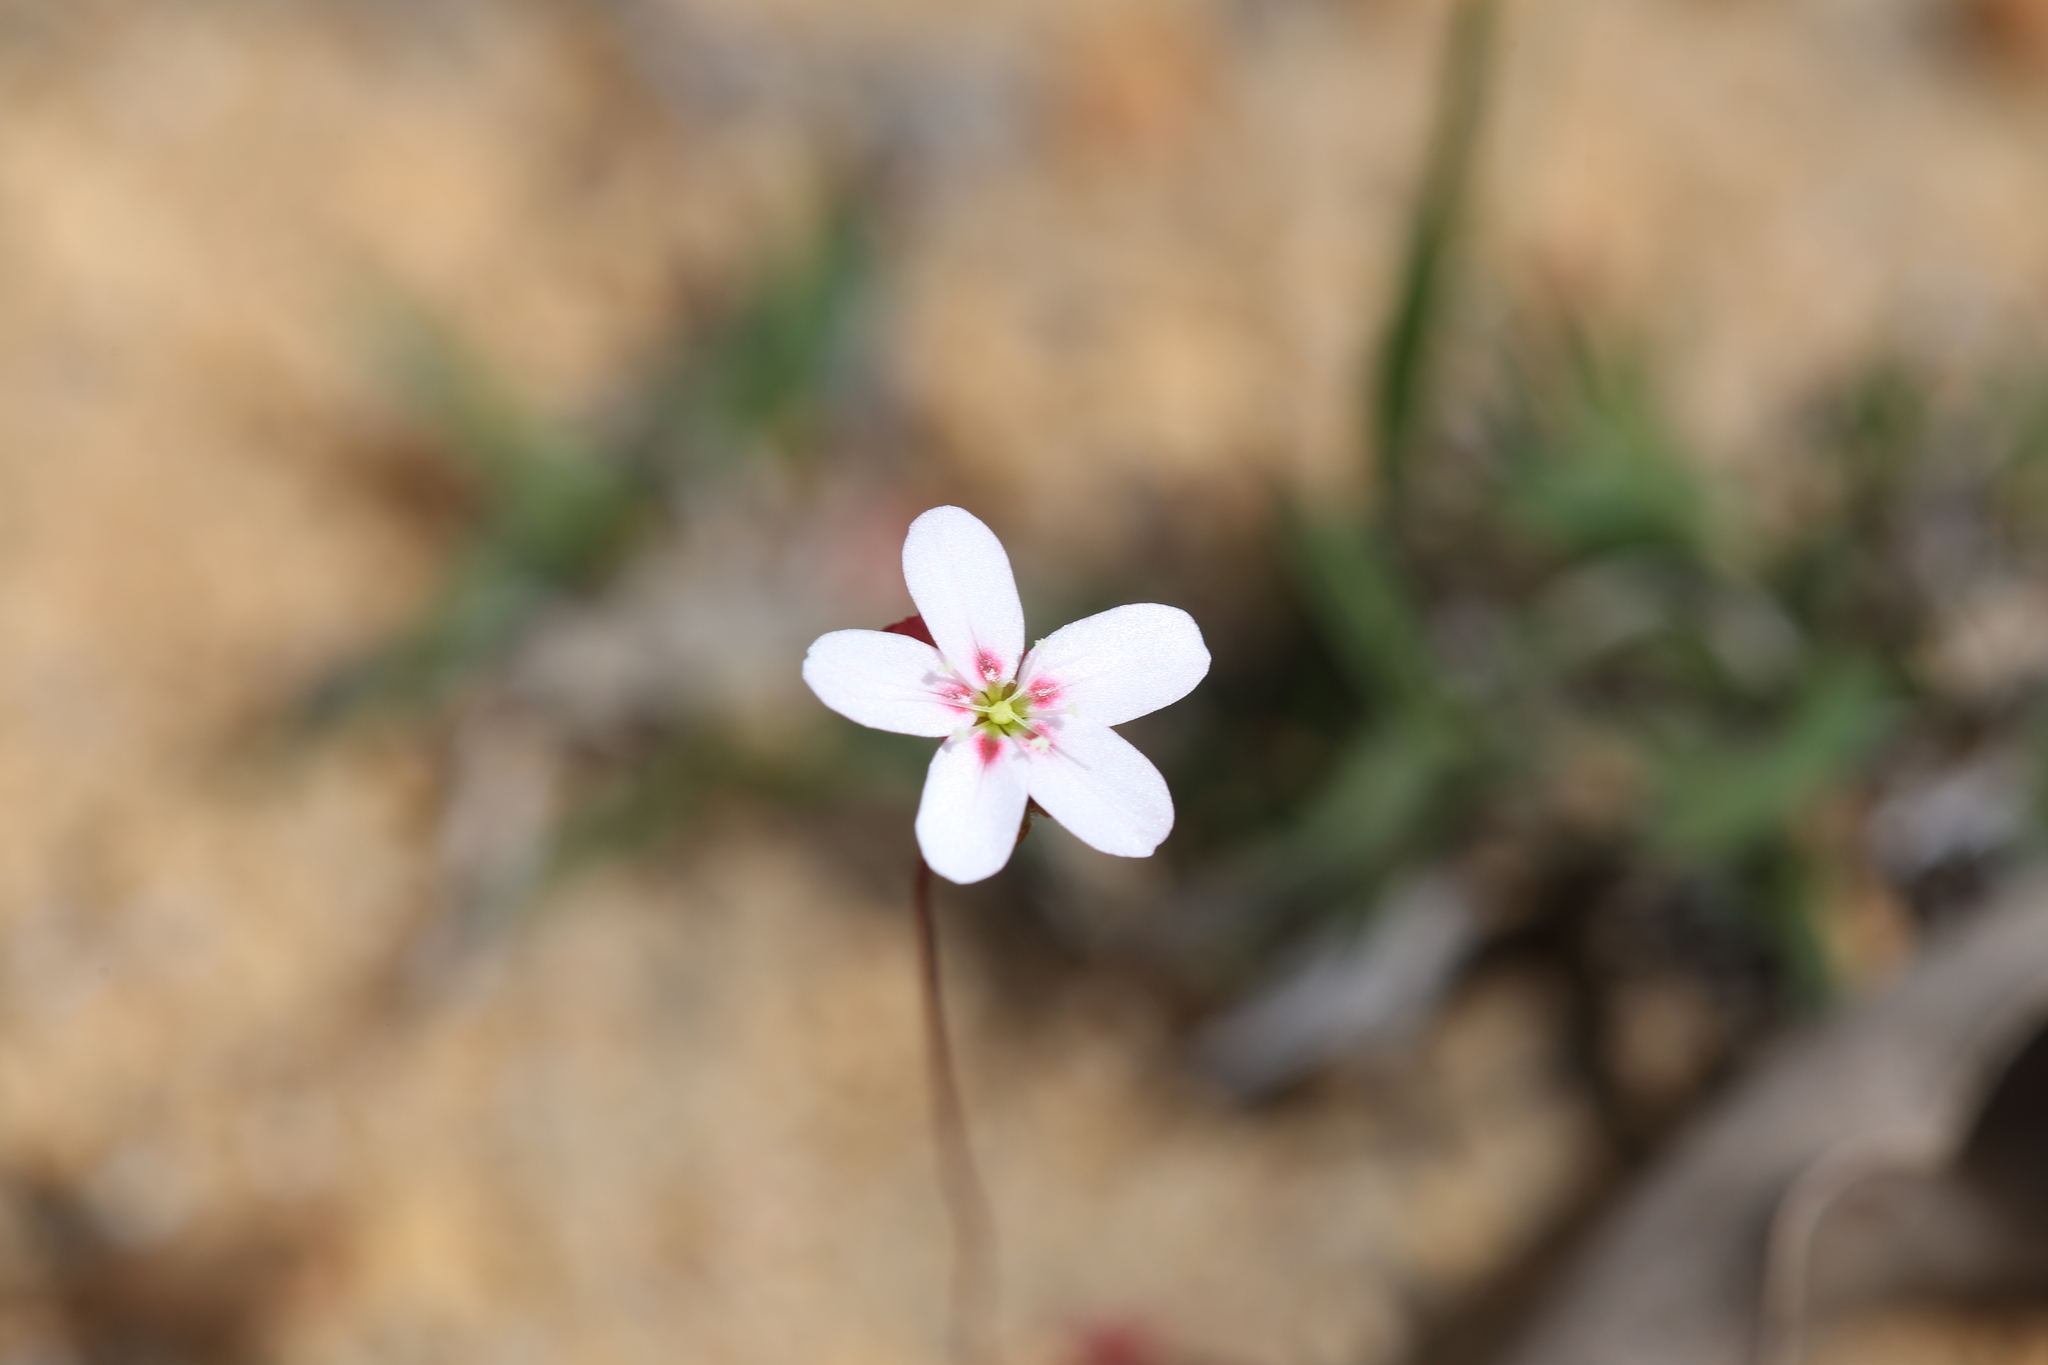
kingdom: Plantae
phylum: Tracheophyta
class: Magnoliopsida
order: Caryophyllales
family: Droseraceae
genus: Drosera
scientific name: Drosera spilos
